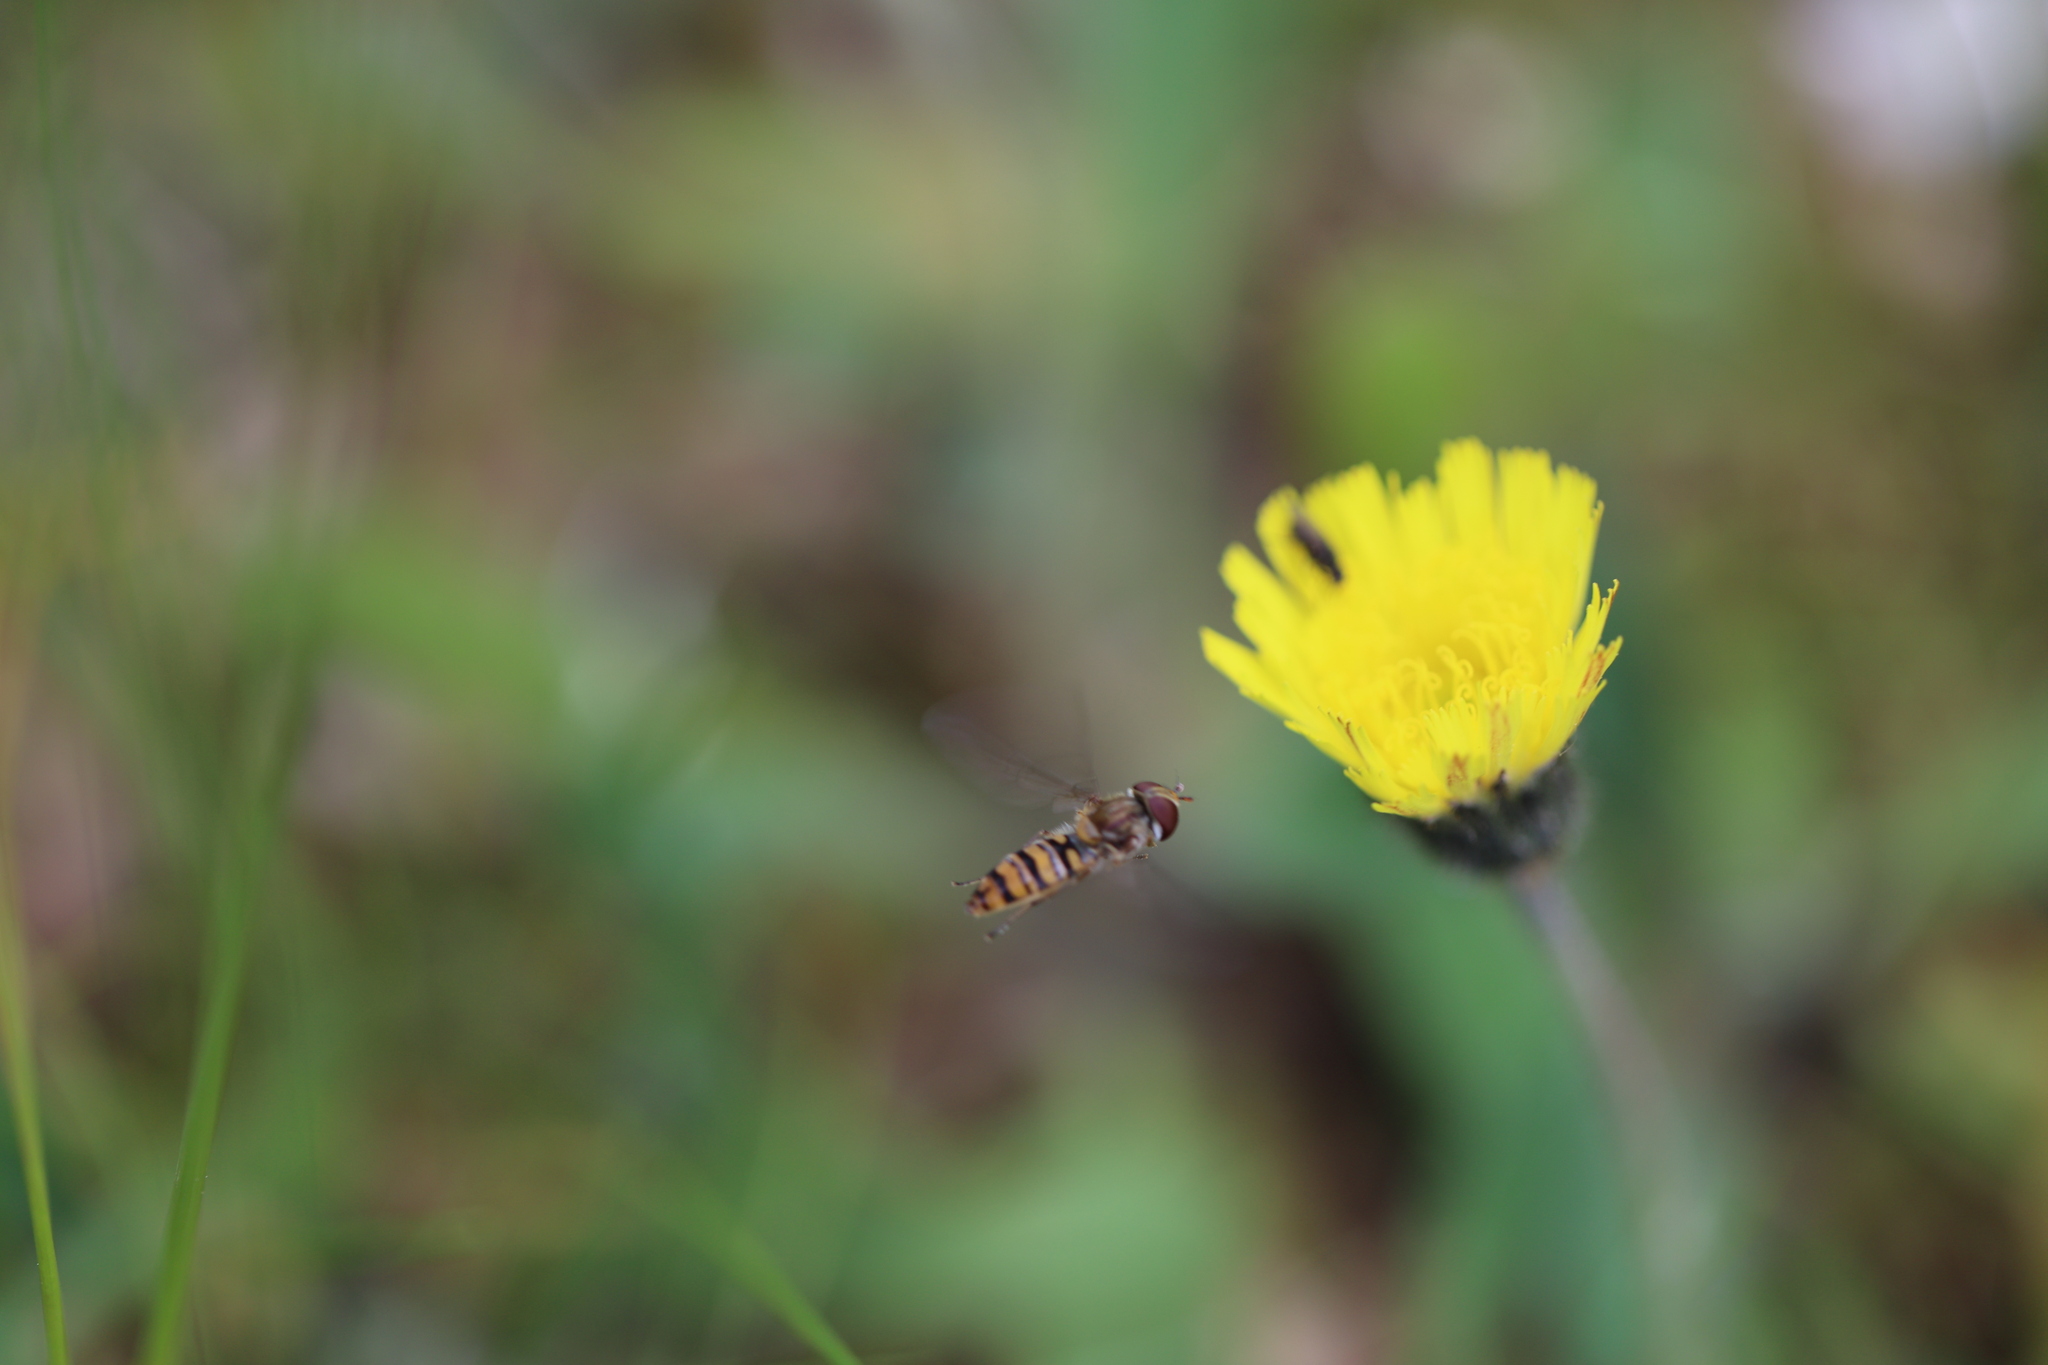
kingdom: Animalia
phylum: Arthropoda
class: Insecta
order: Diptera
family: Syrphidae
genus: Episyrphus
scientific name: Episyrphus balteatus
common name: Marmalade hoverfly
